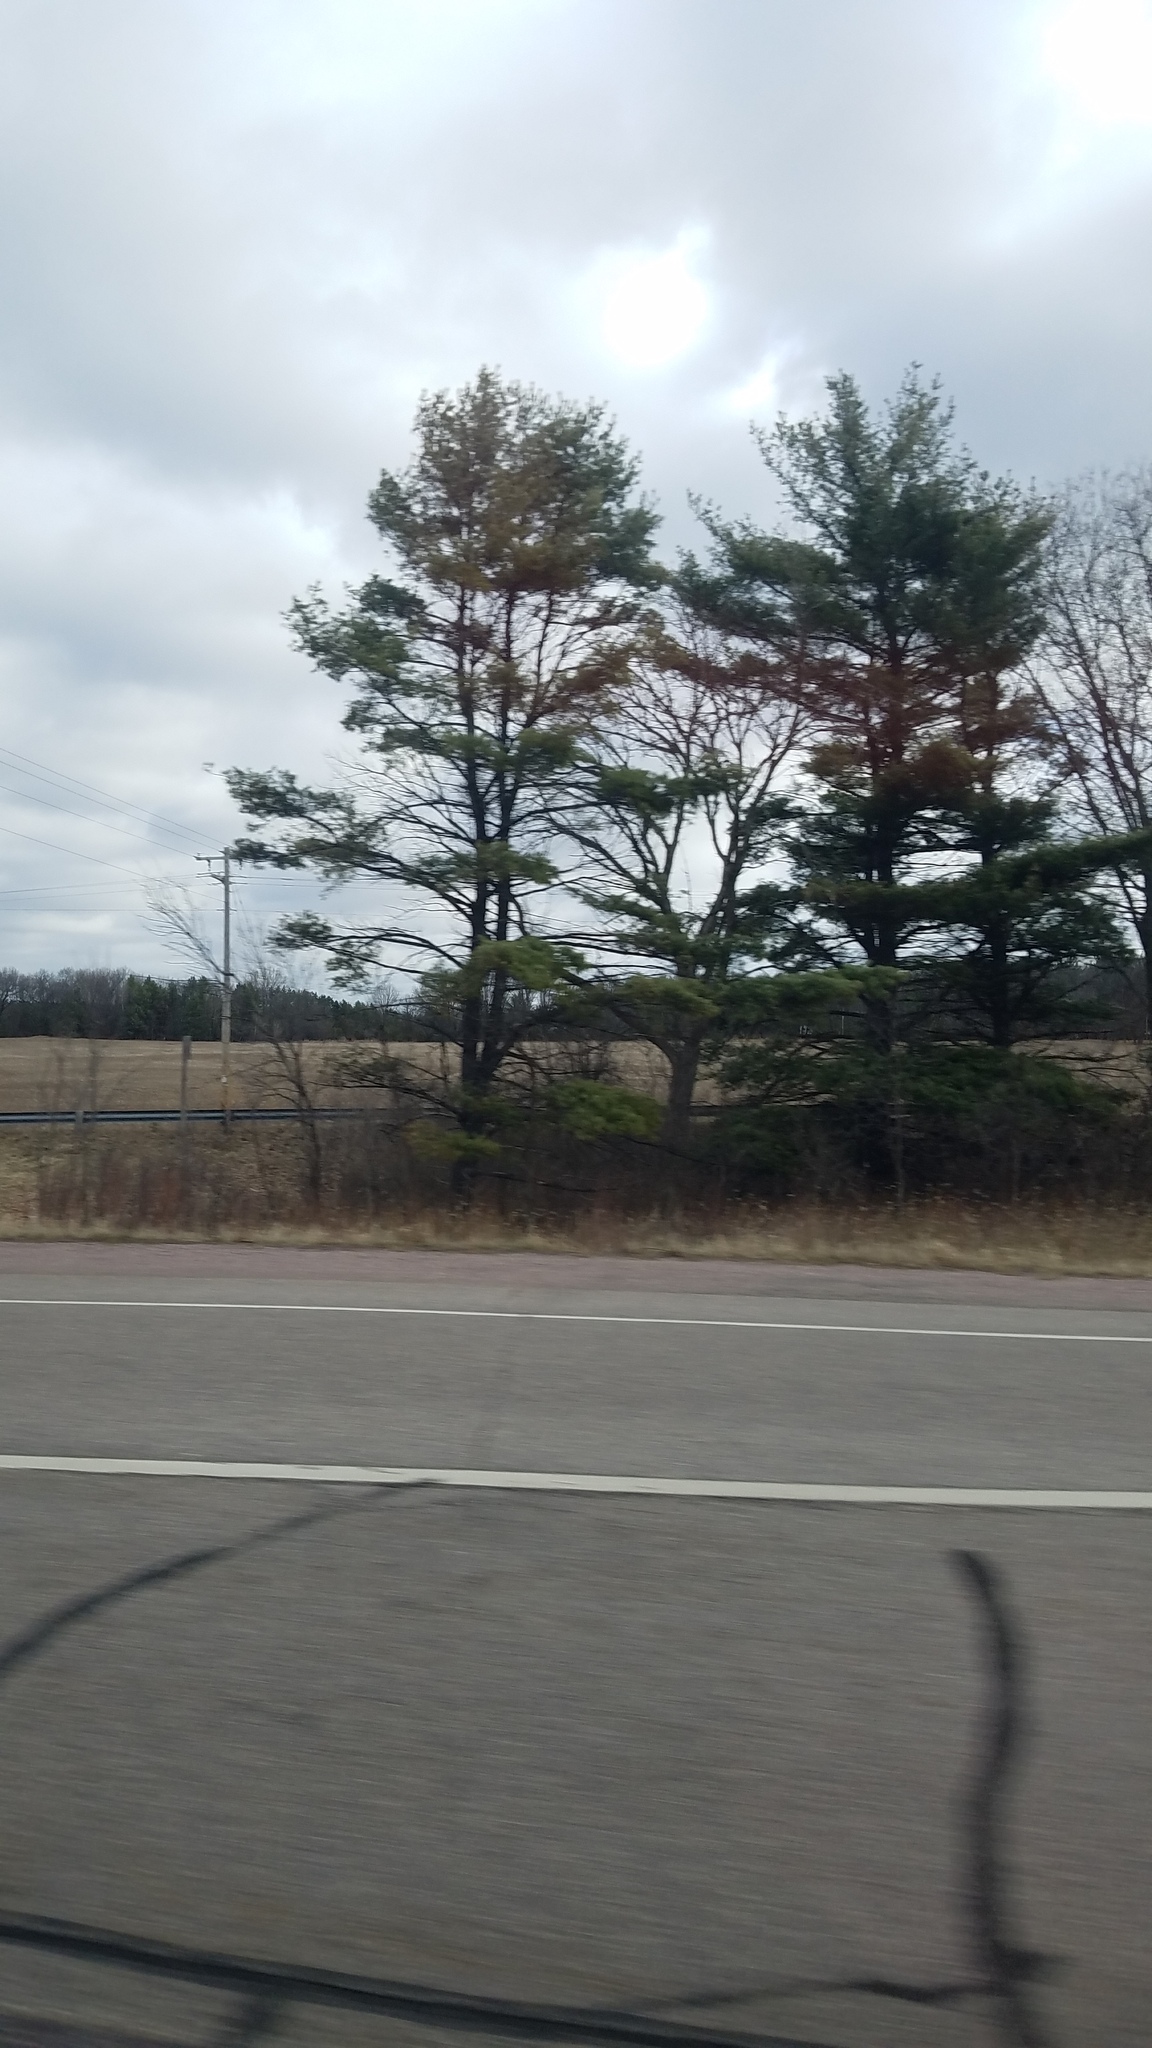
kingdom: Plantae
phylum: Tracheophyta
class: Pinopsida
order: Pinales
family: Pinaceae
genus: Pinus
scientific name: Pinus strobus
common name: Weymouth pine
